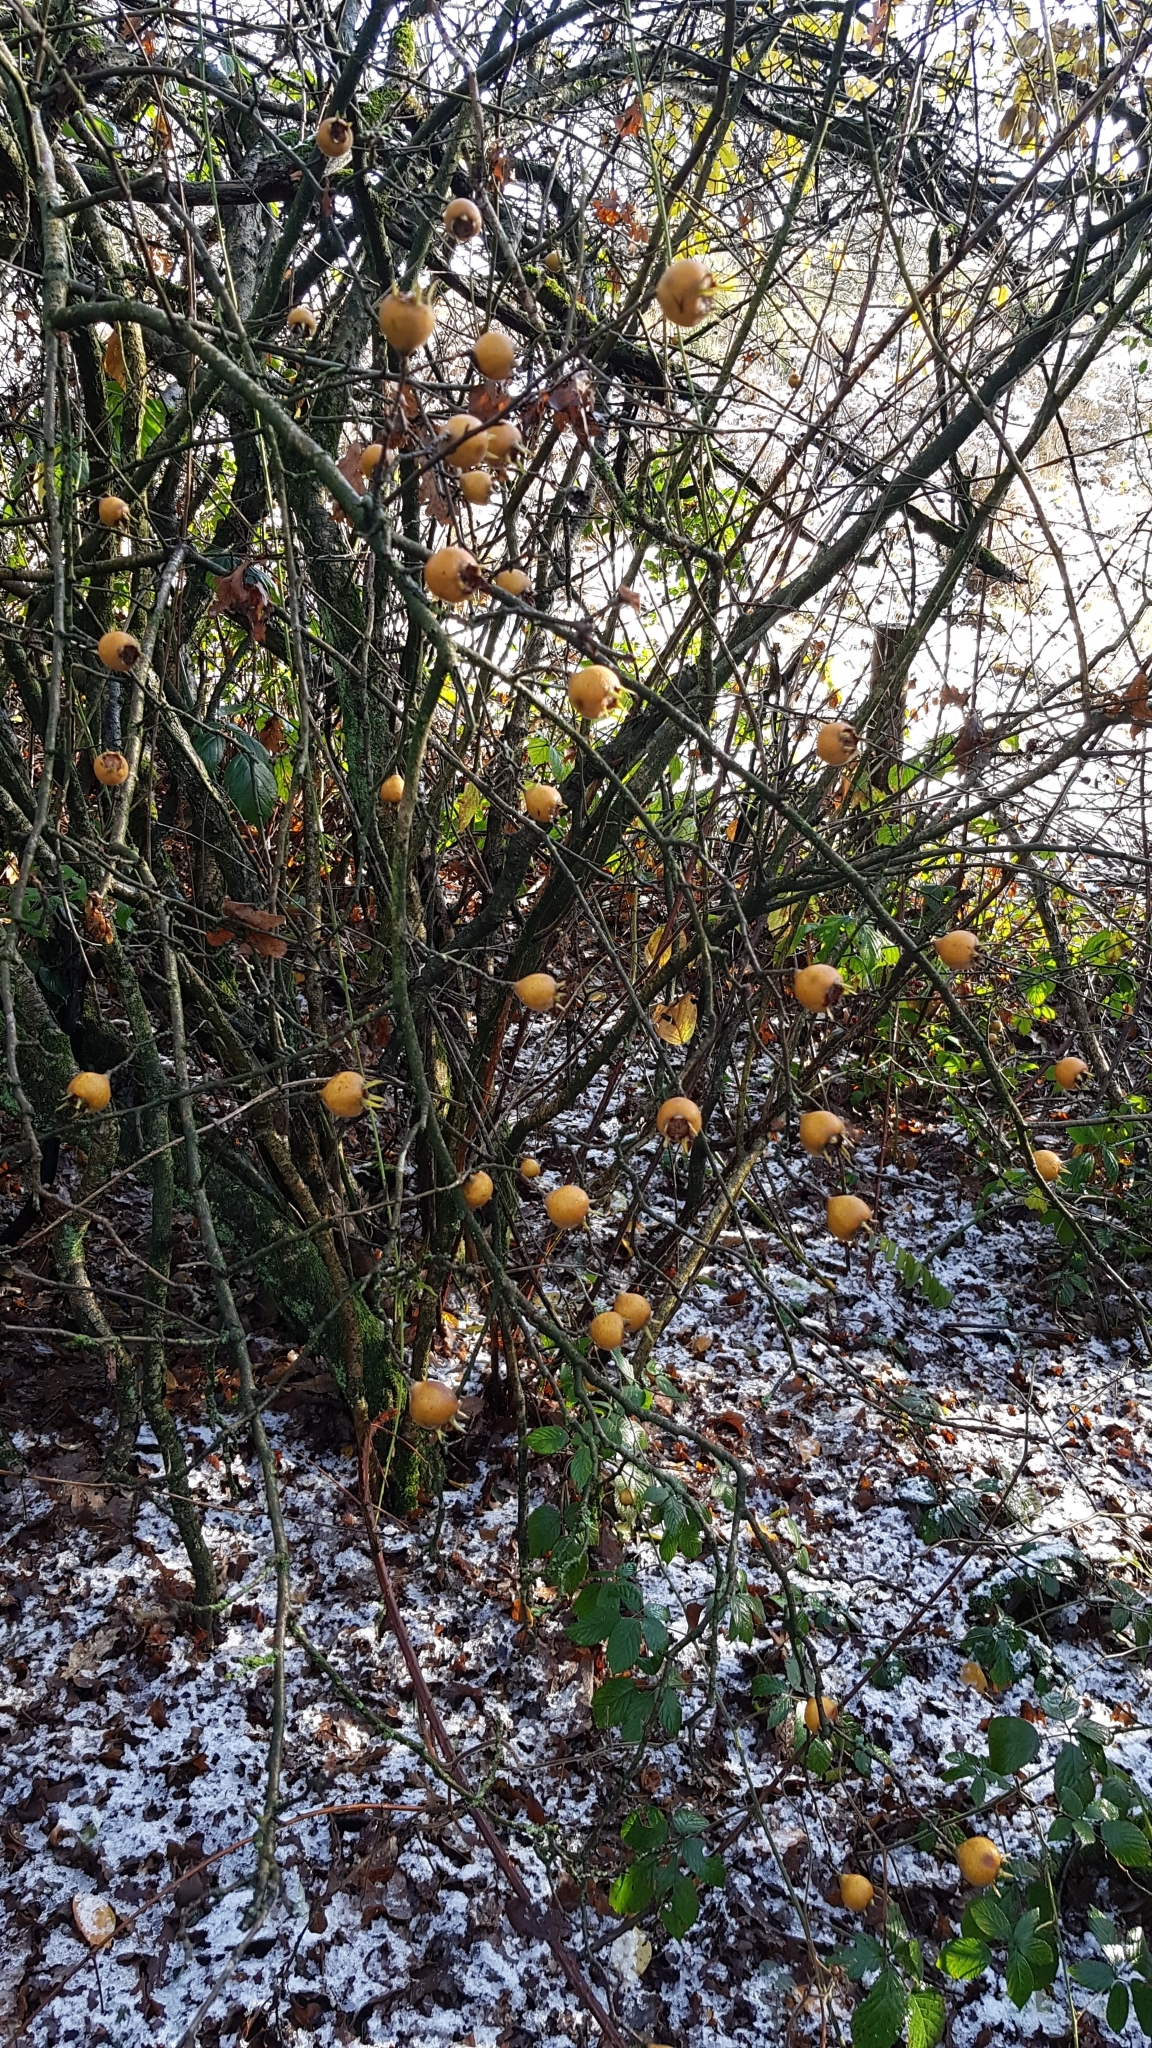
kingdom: Plantae
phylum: Tracheophyta
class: Magnoliopsida
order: Rosales
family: Rosaceae
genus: Mespilus
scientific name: Mespilus germanica
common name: Medlar
